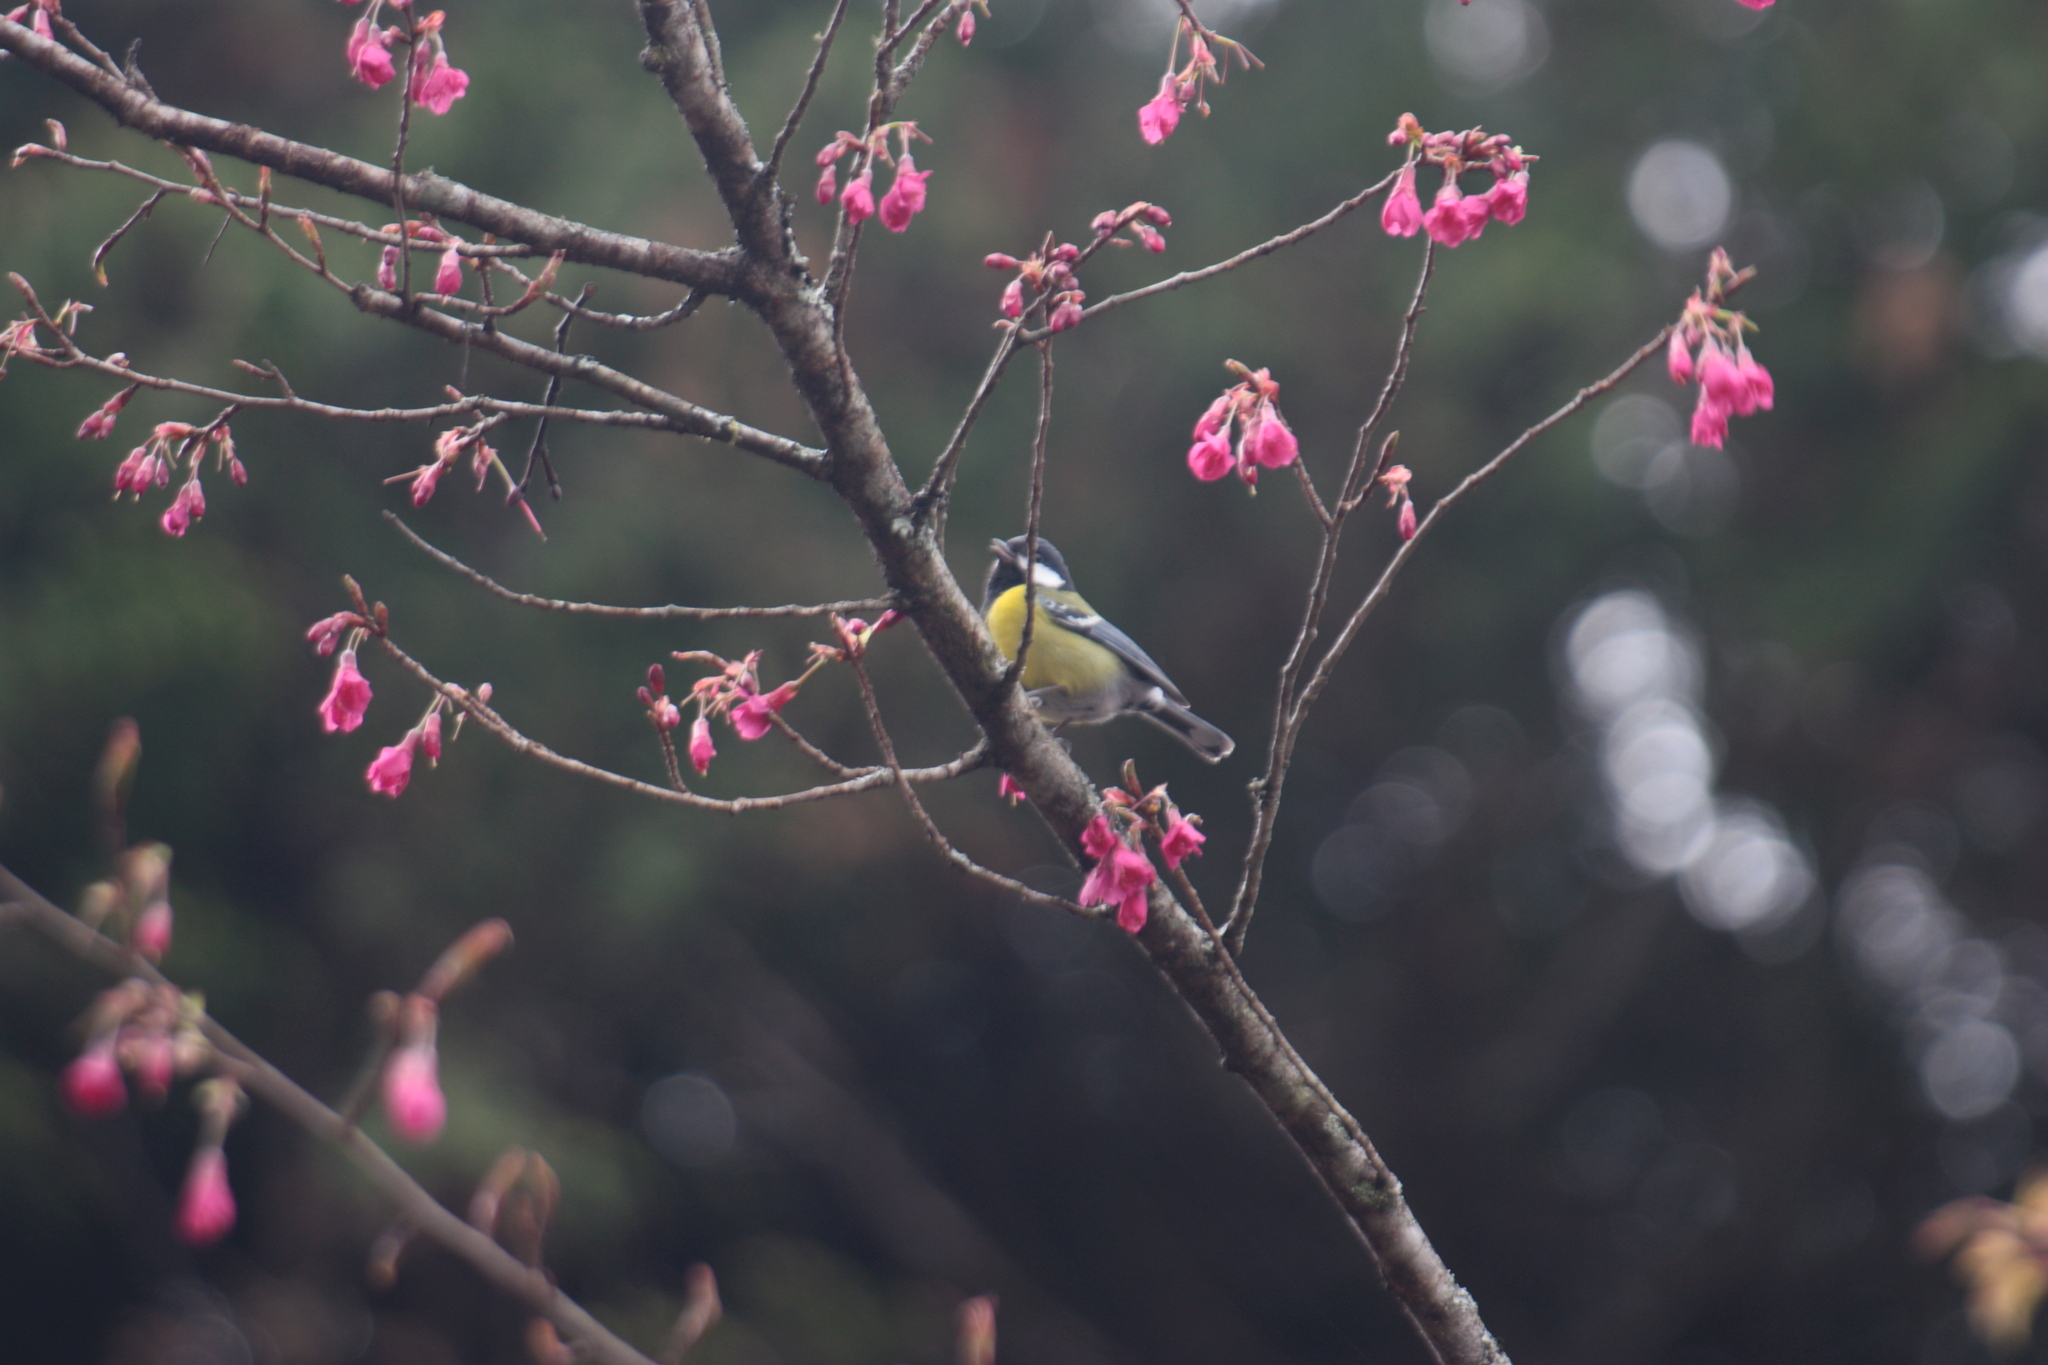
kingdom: Animalia
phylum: Chordata
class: Aves
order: Passeriformes
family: Paridae
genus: Parus
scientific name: Parus monticolus
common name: Green-backed tit
